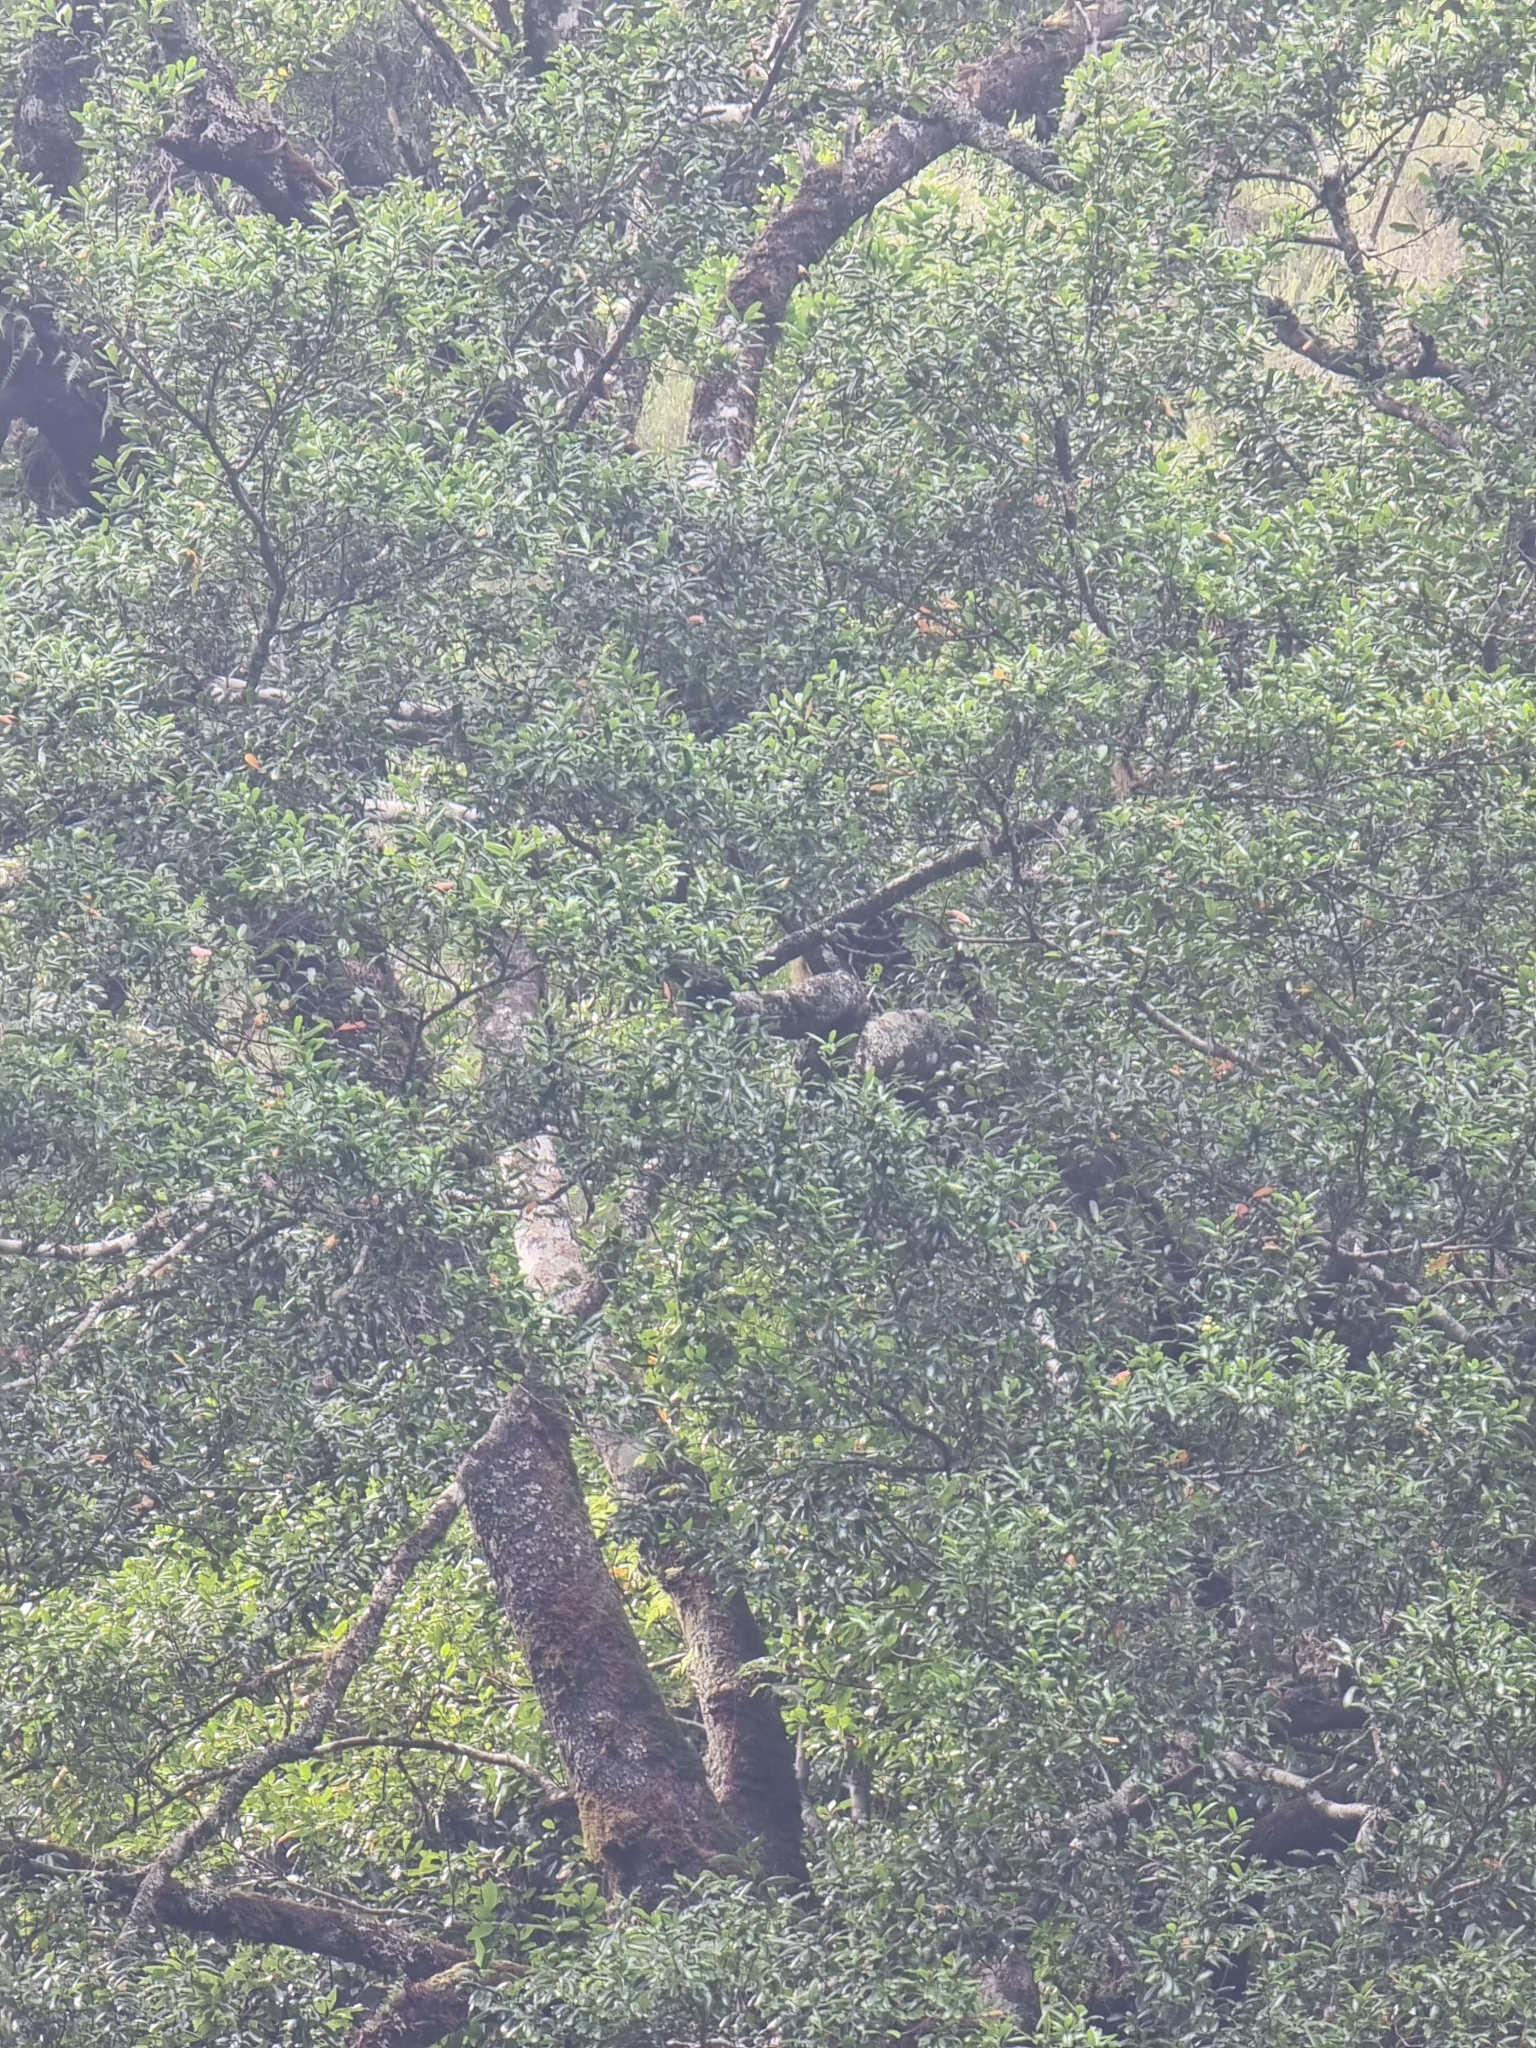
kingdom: Plantae
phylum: Tracheophyta
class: Magnoliopsida
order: Laurales
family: Lauraceae
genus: Mespilodaphne
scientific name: Mespilodaphne foetens
